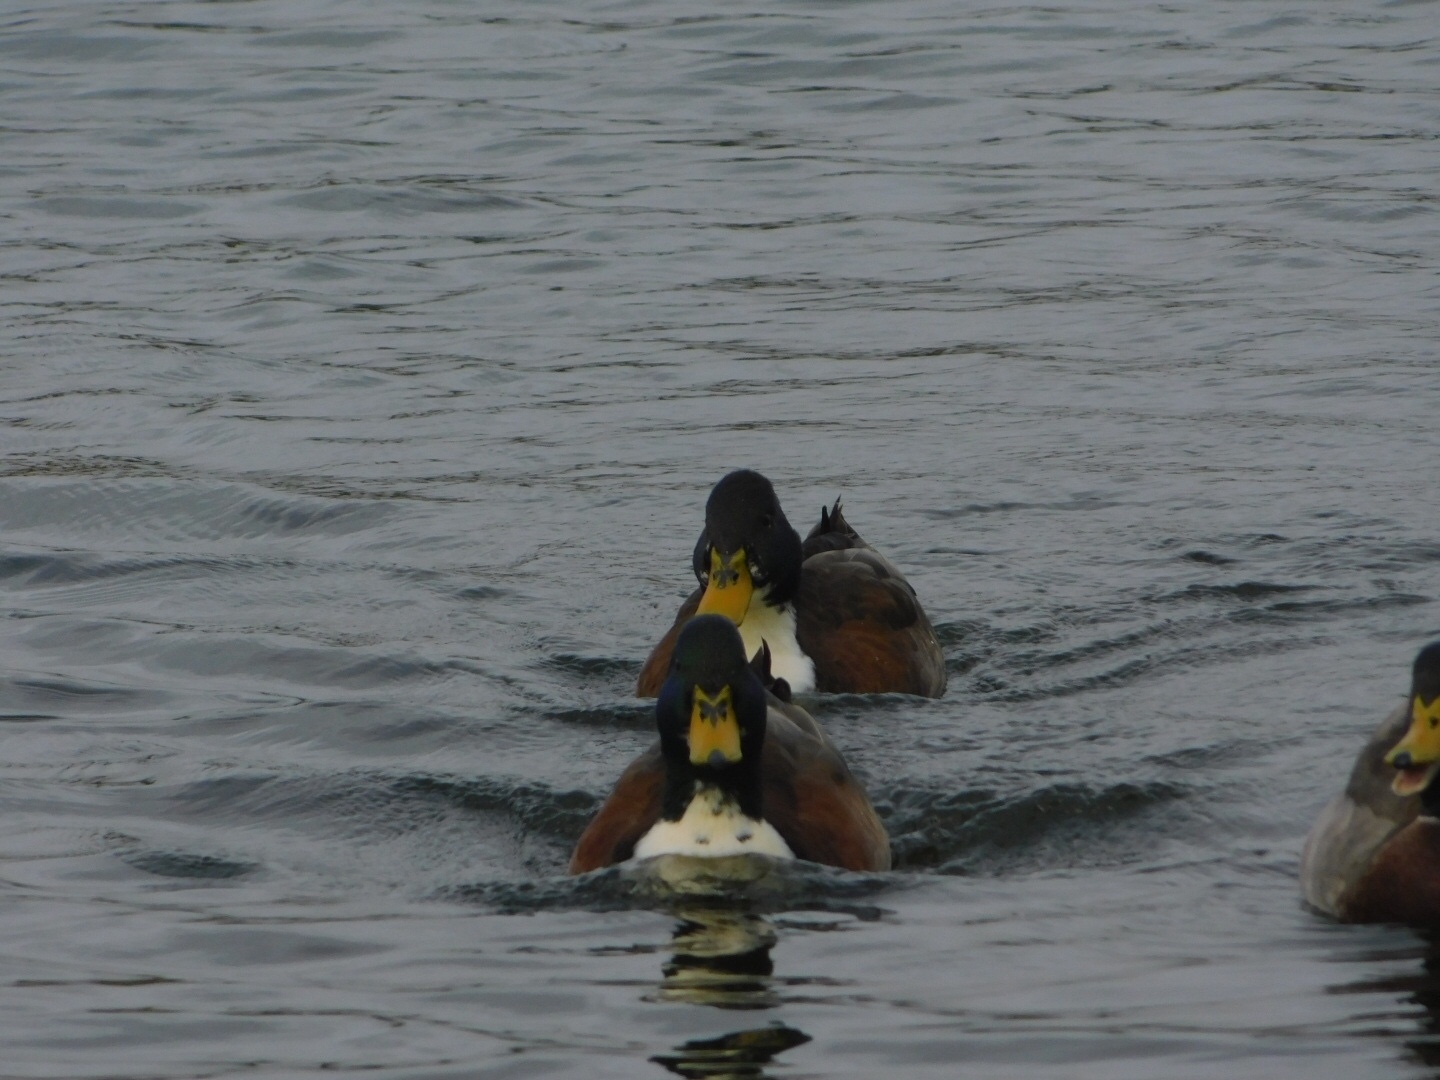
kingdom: Animalia
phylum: Chordata
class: Aves
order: Anseriformes
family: Anatidae
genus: Anas
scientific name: Anas platyrhynchos
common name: Mallard
